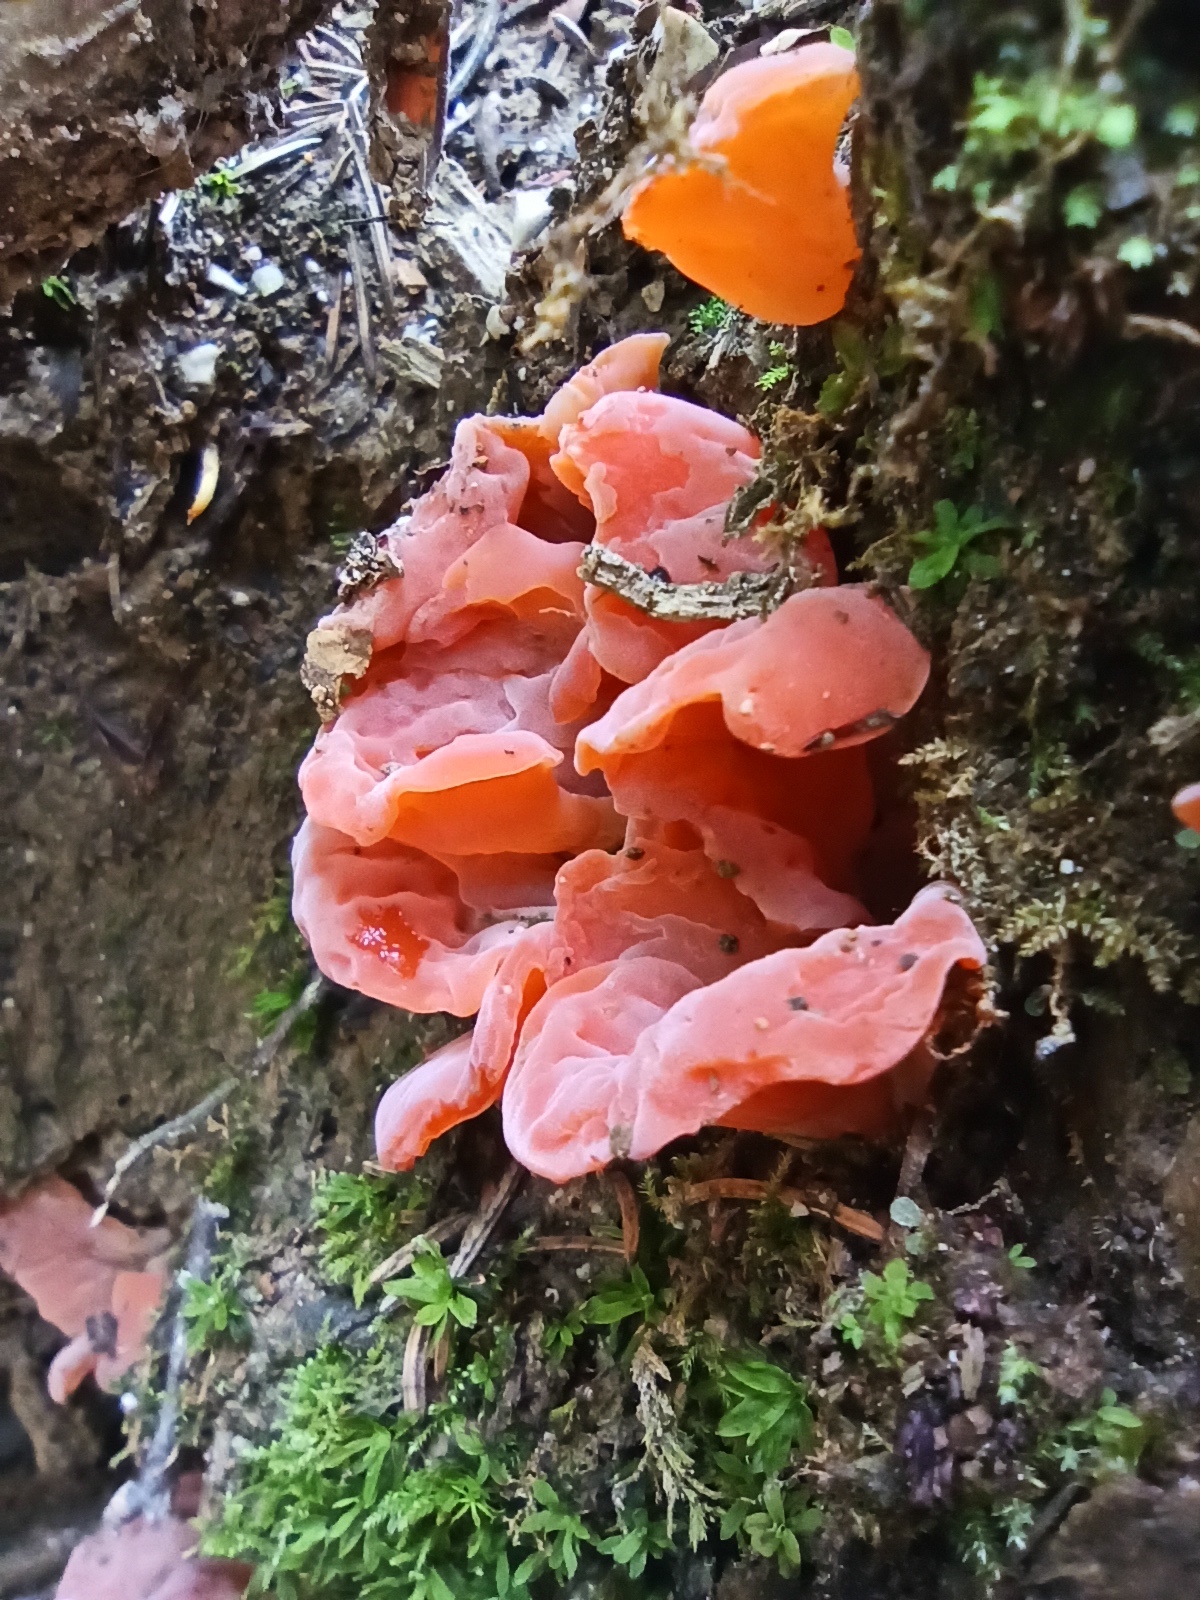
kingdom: Fungi
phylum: Basidiomycota
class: Agaricomycetes
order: Auriculariales
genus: Guepinia
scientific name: Guepinia helvelloides
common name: Salmon salad
